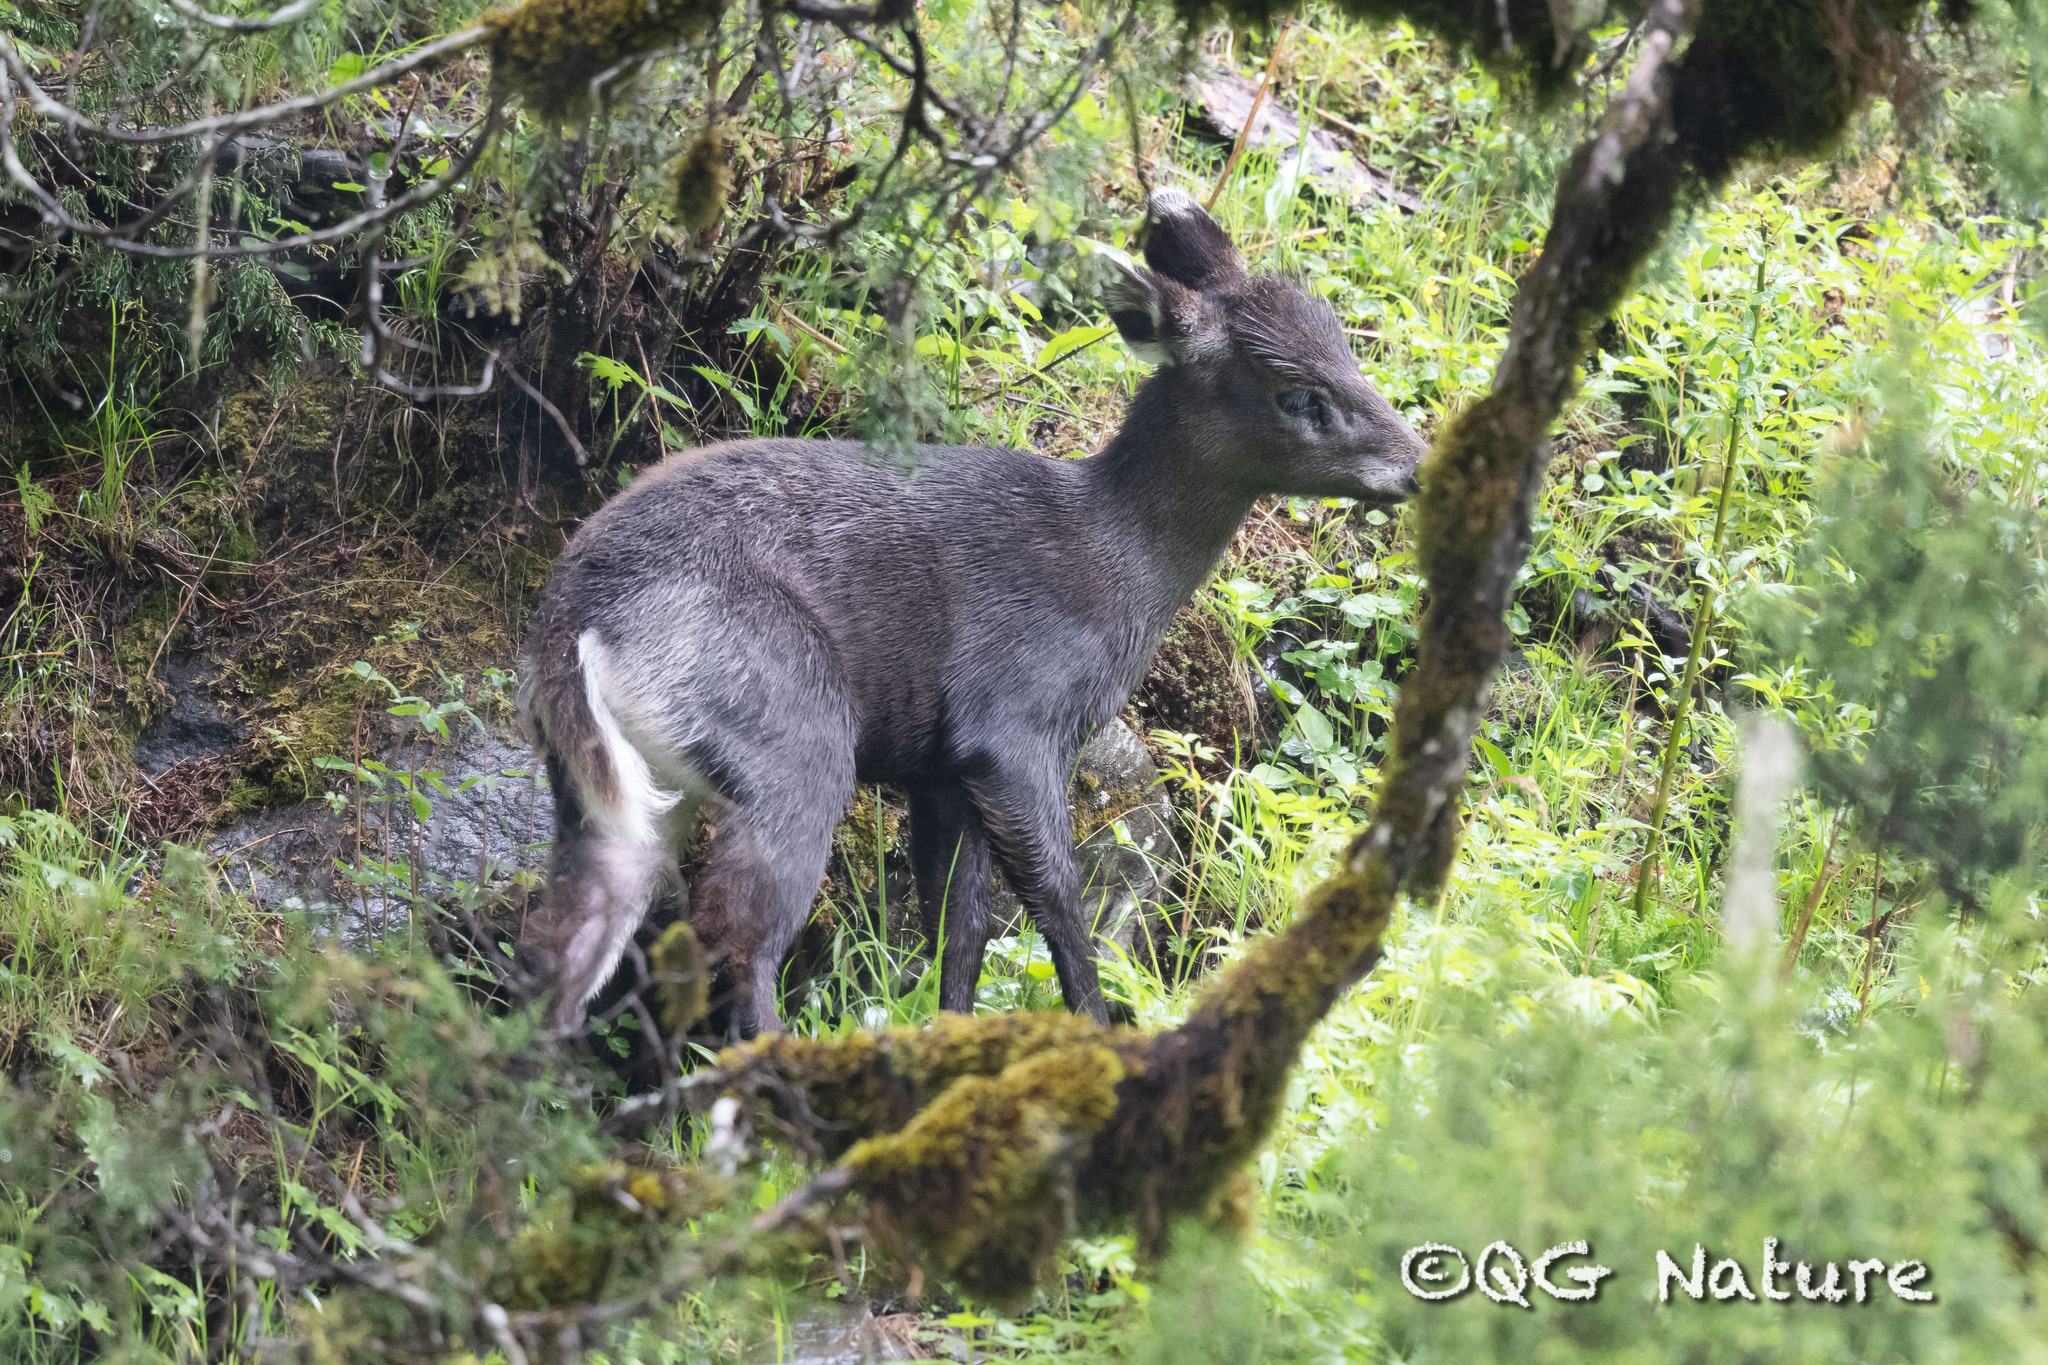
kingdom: Animalia
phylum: Chordata
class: Mammalia
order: Artiodactyla
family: Cervidae
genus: Elaphodus
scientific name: Elaphodus cephalophus
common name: Tufted deer
